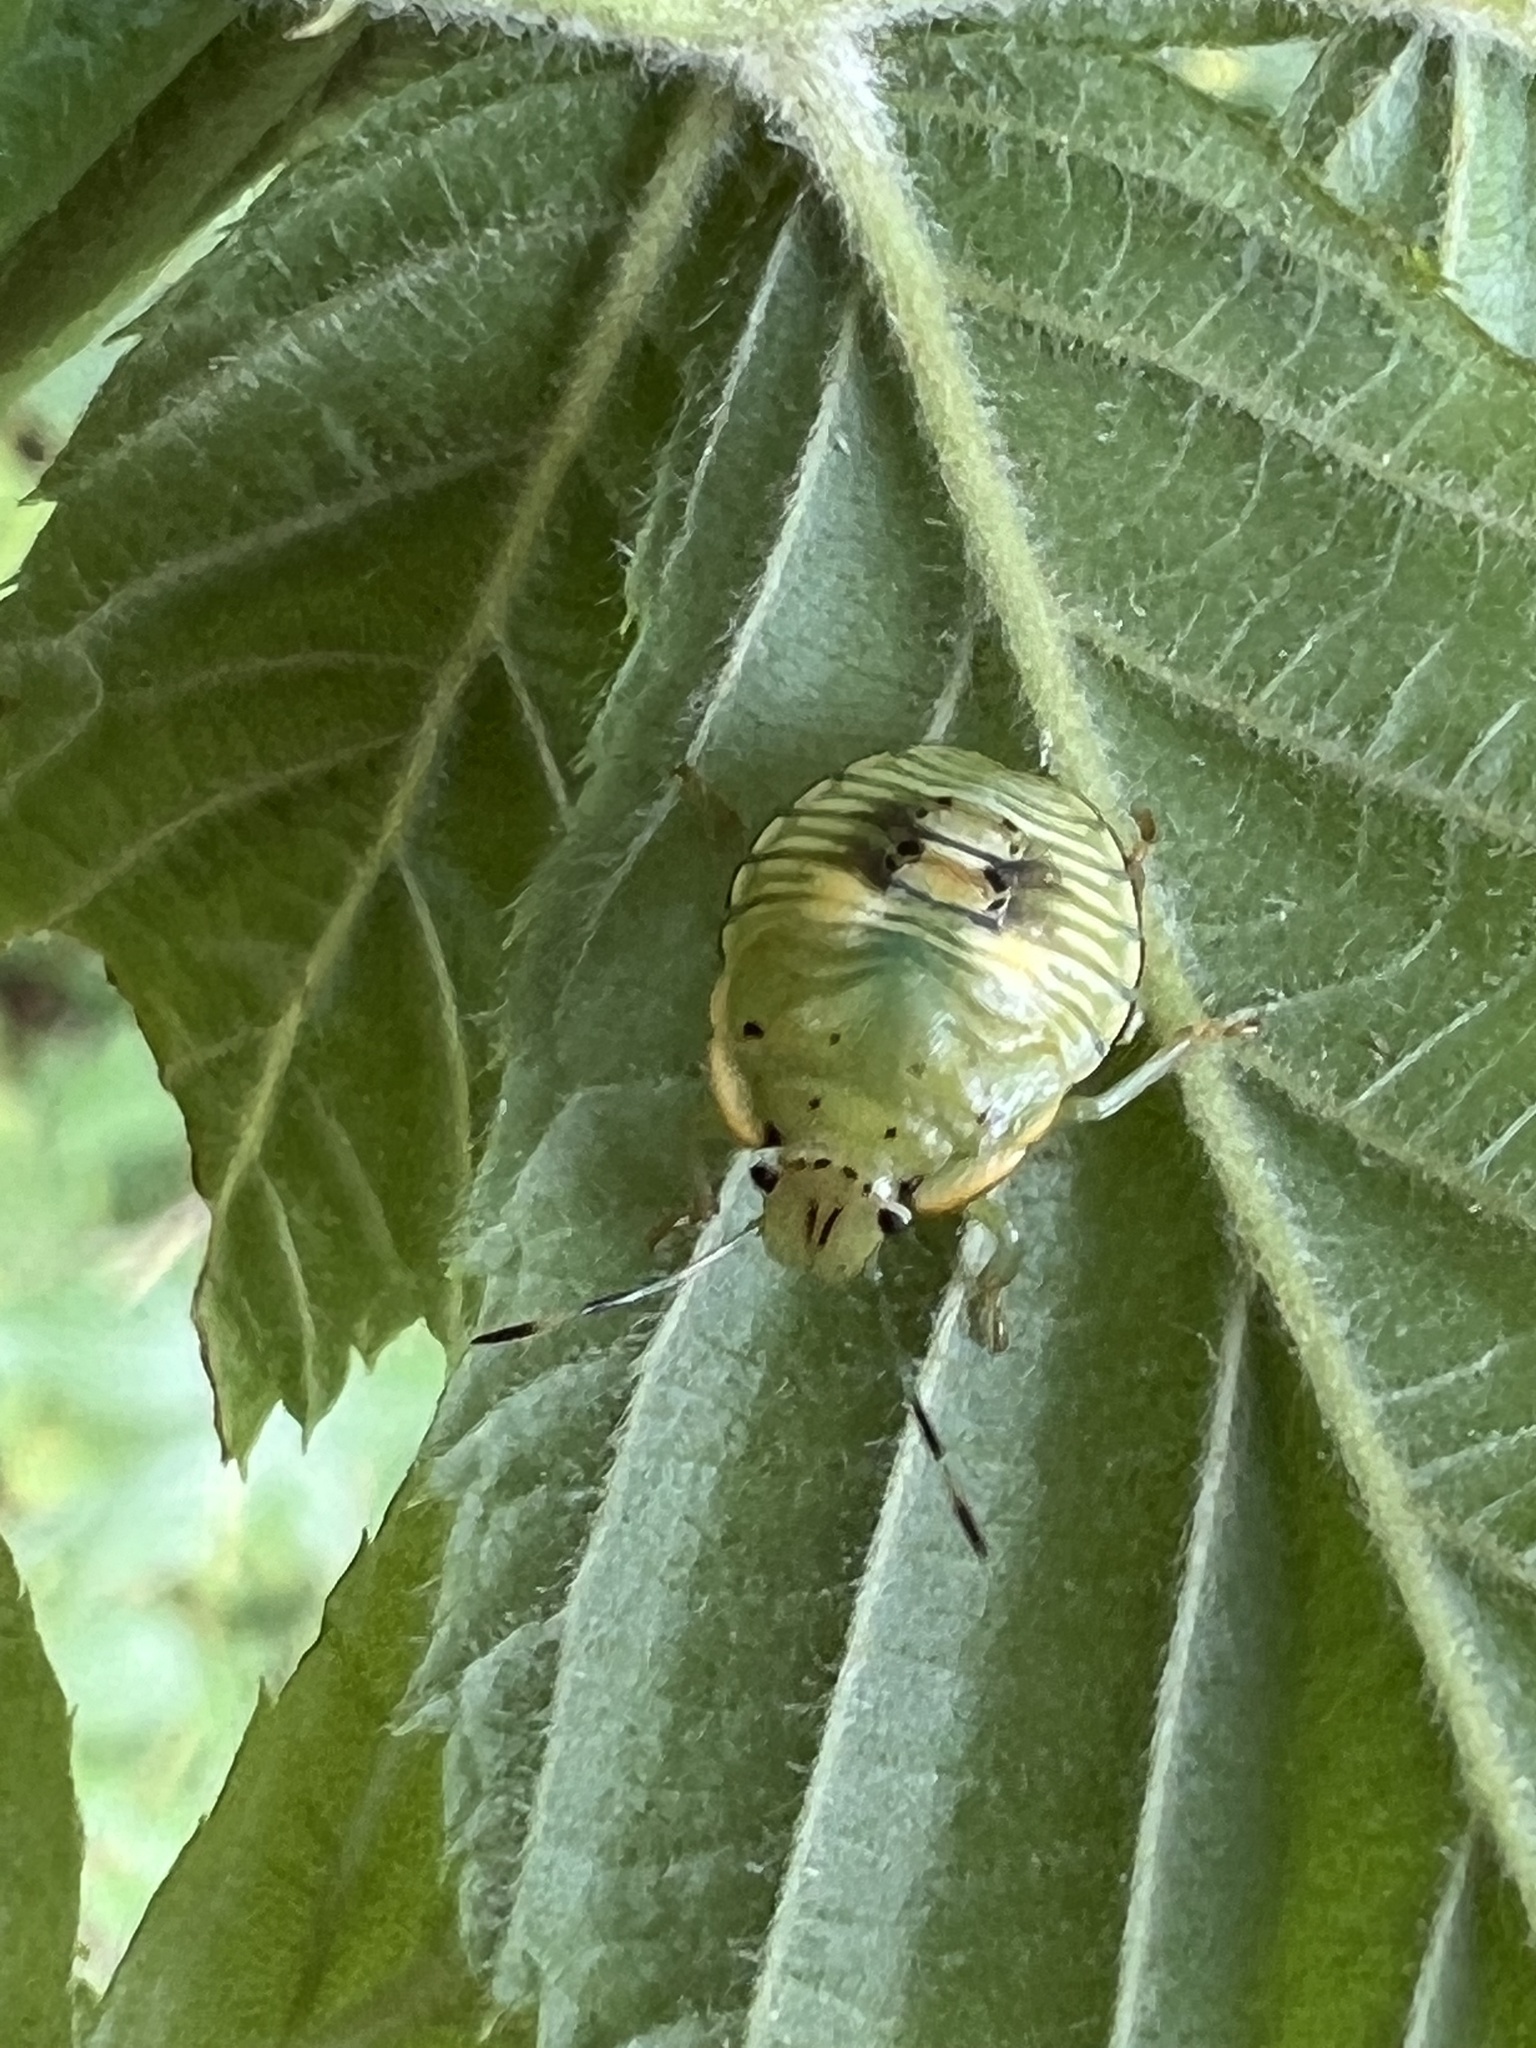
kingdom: Animalia
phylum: Arthropoda
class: Insecta
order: Hemiptera
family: Pentatomidae
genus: Chinavia
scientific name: Chinavia hilaris
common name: Green stink bug
